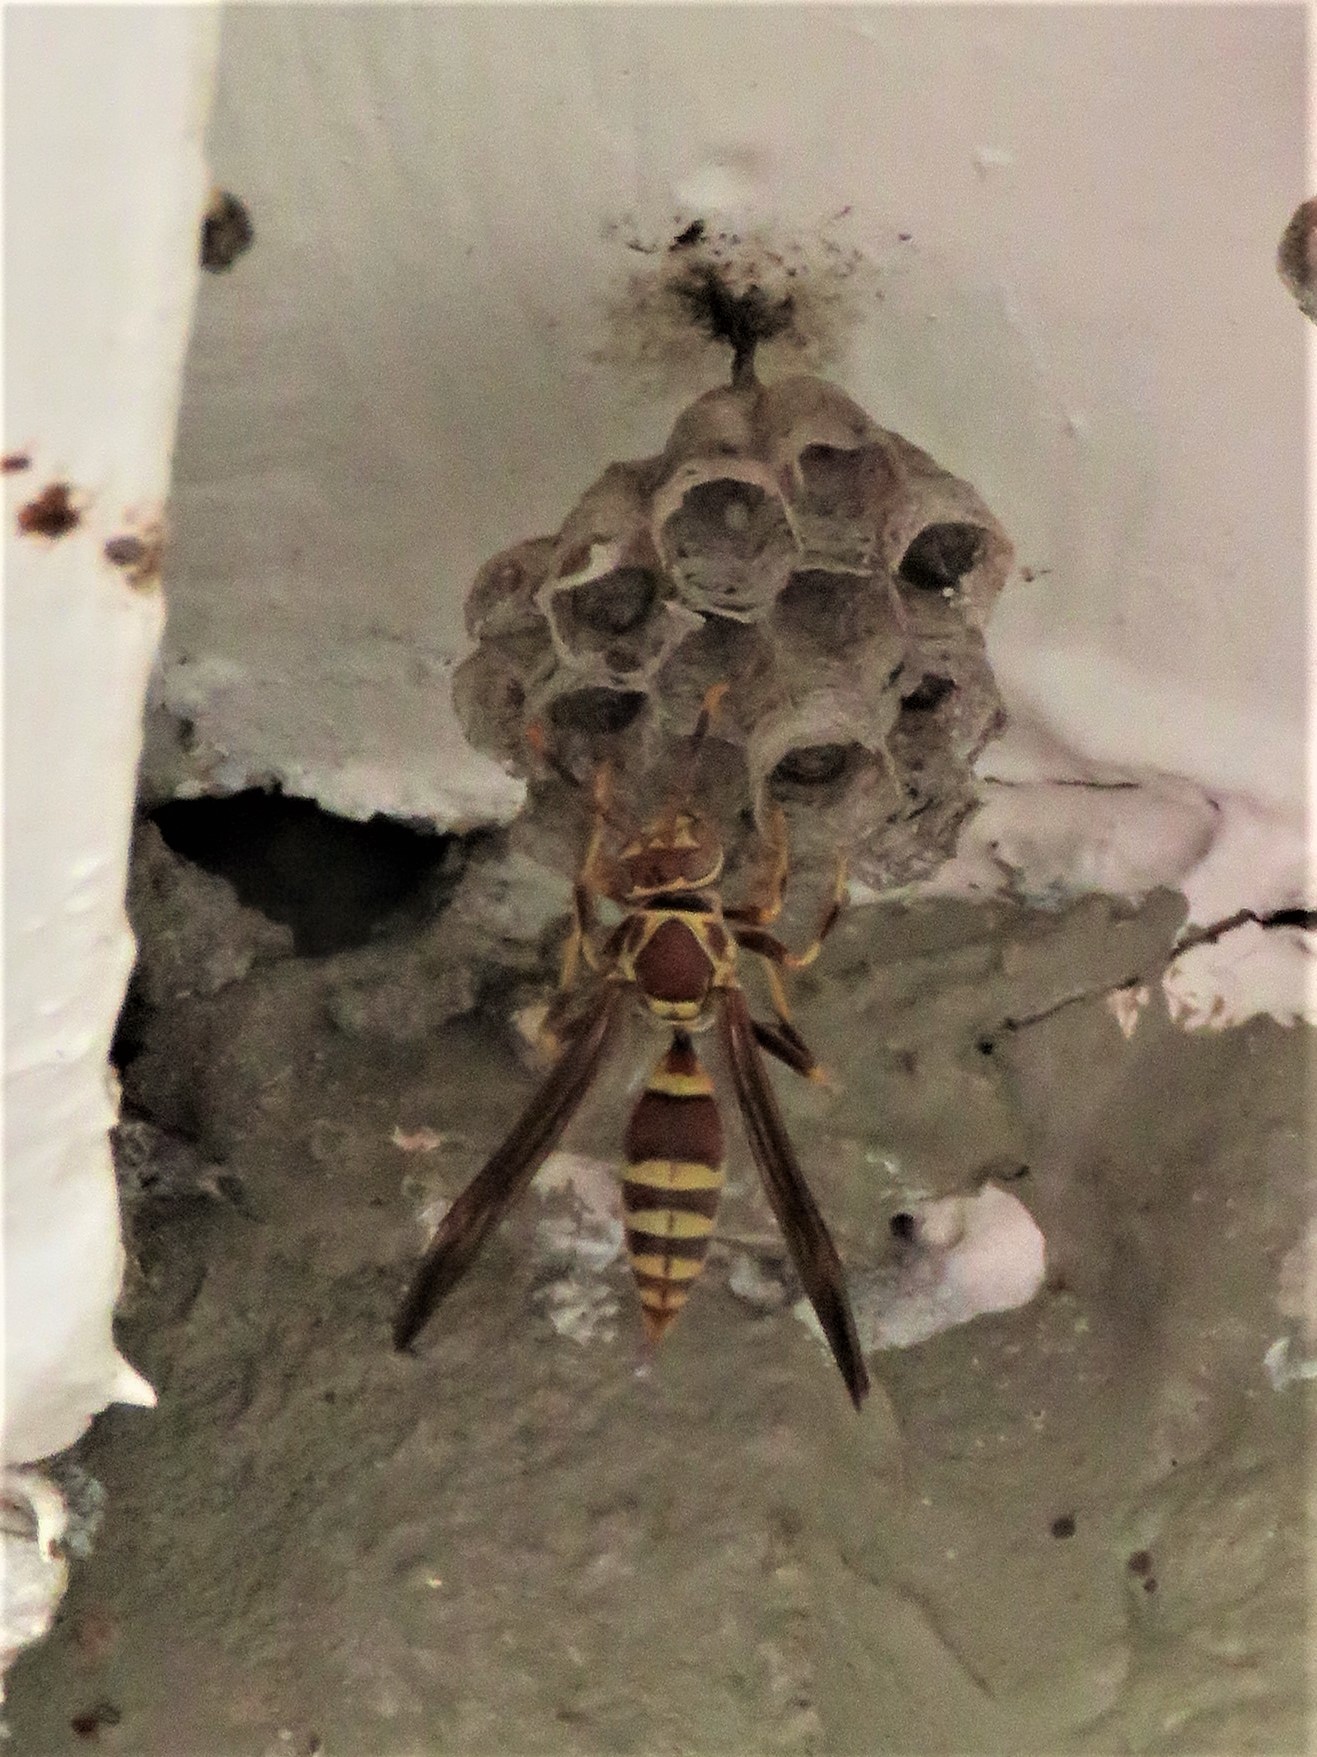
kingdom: Animalia
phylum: Arthropoda
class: Insecta
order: Hymenoptera
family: Eumenidae
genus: Polistes
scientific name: Polistes exclamans
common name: Paper wasp
